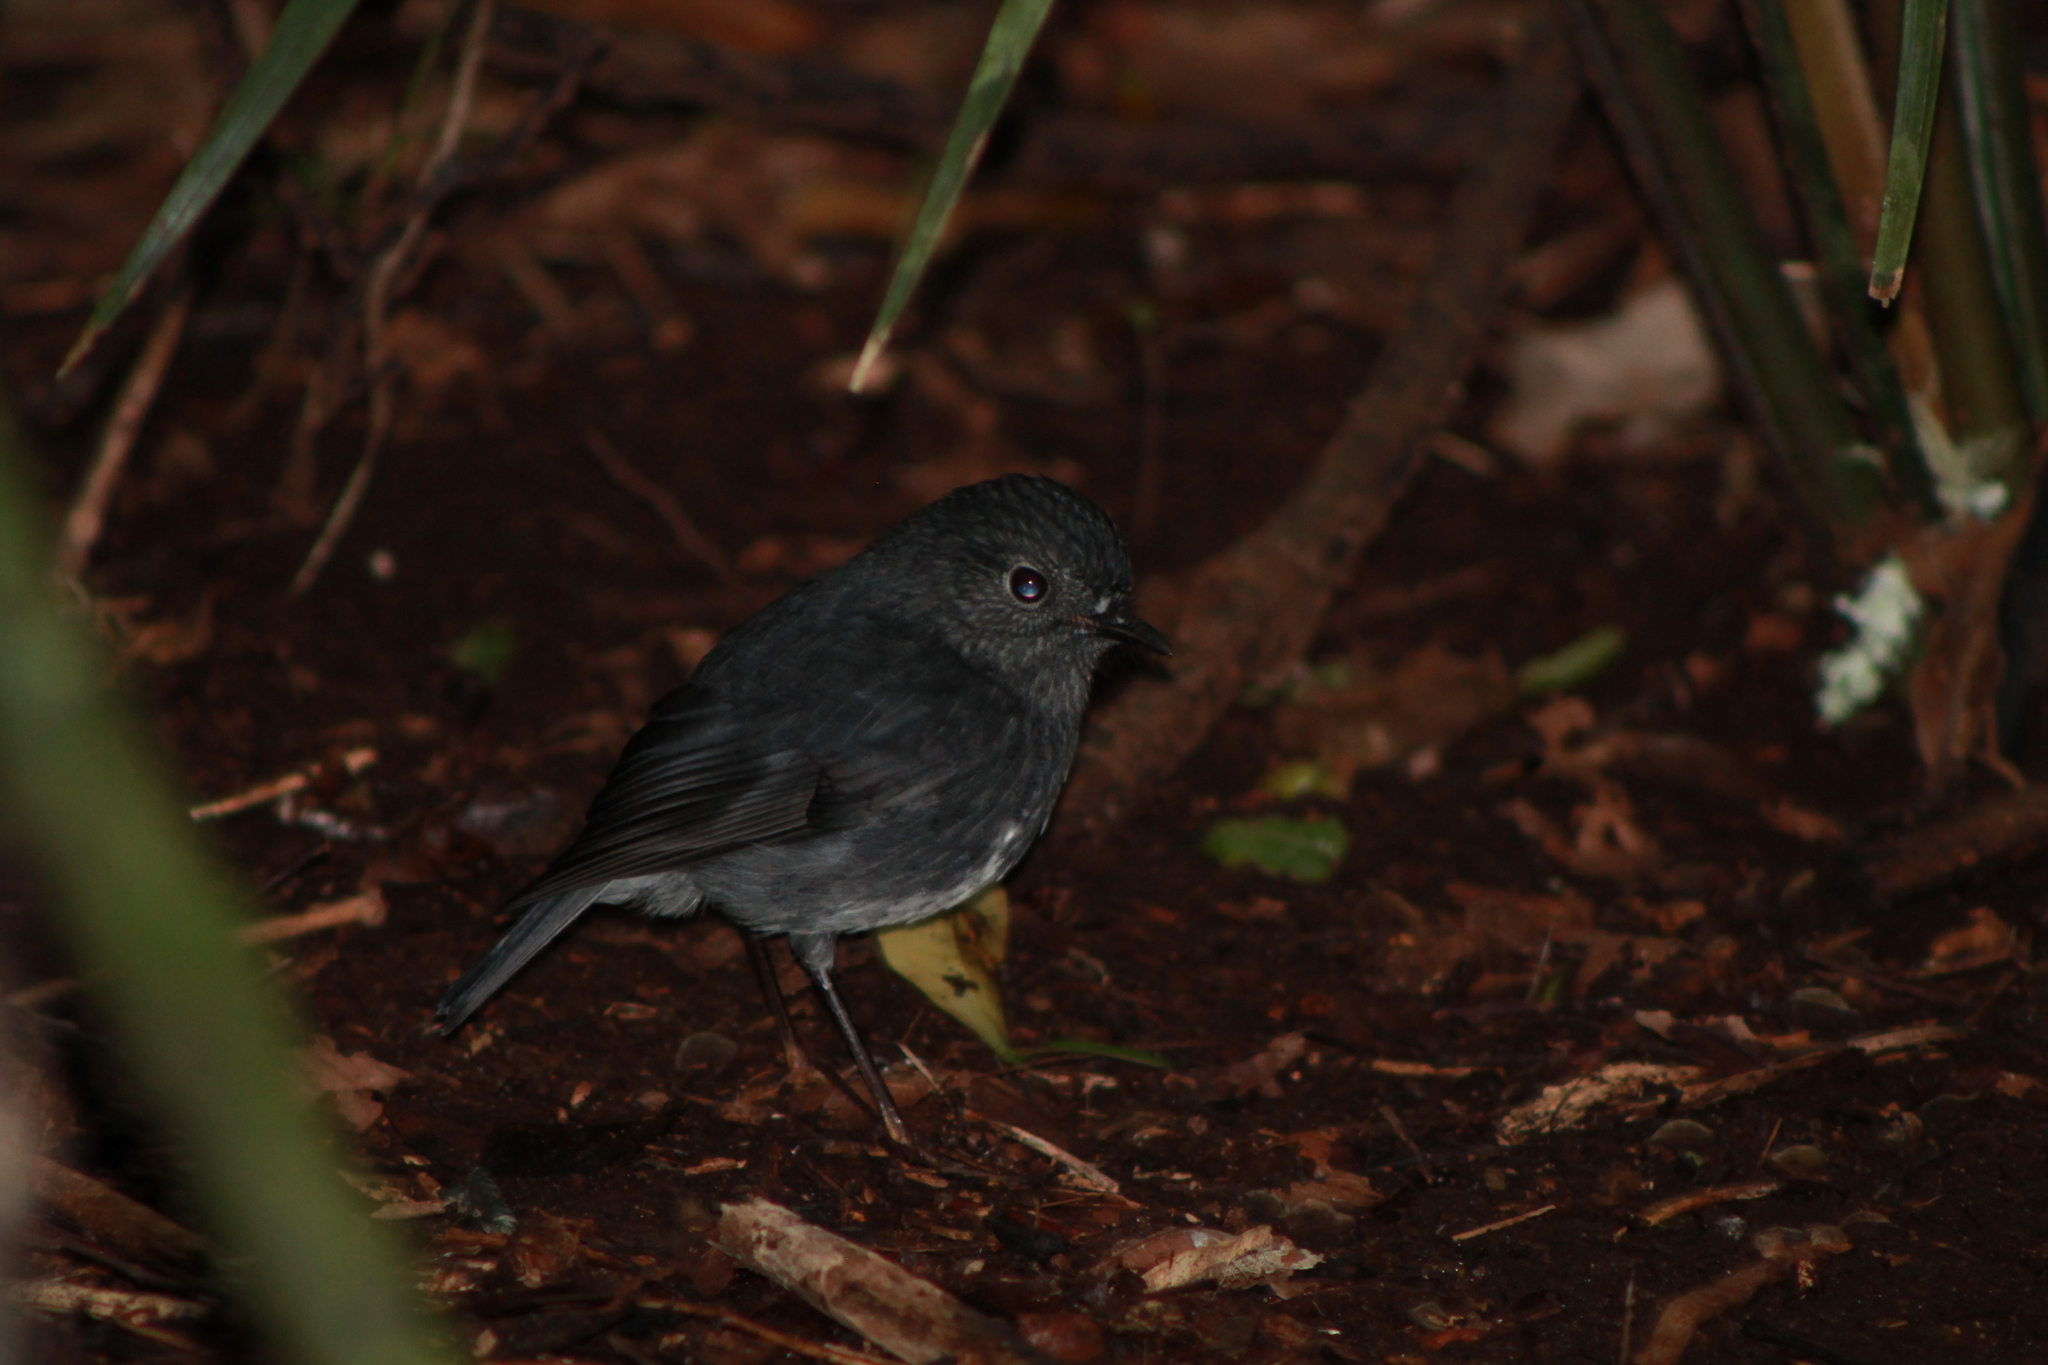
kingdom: Animalia
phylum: Chordata
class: Aves
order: Passeriformes
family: Petroicidae
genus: Petroica
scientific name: Petroica australis
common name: New zealand robin
